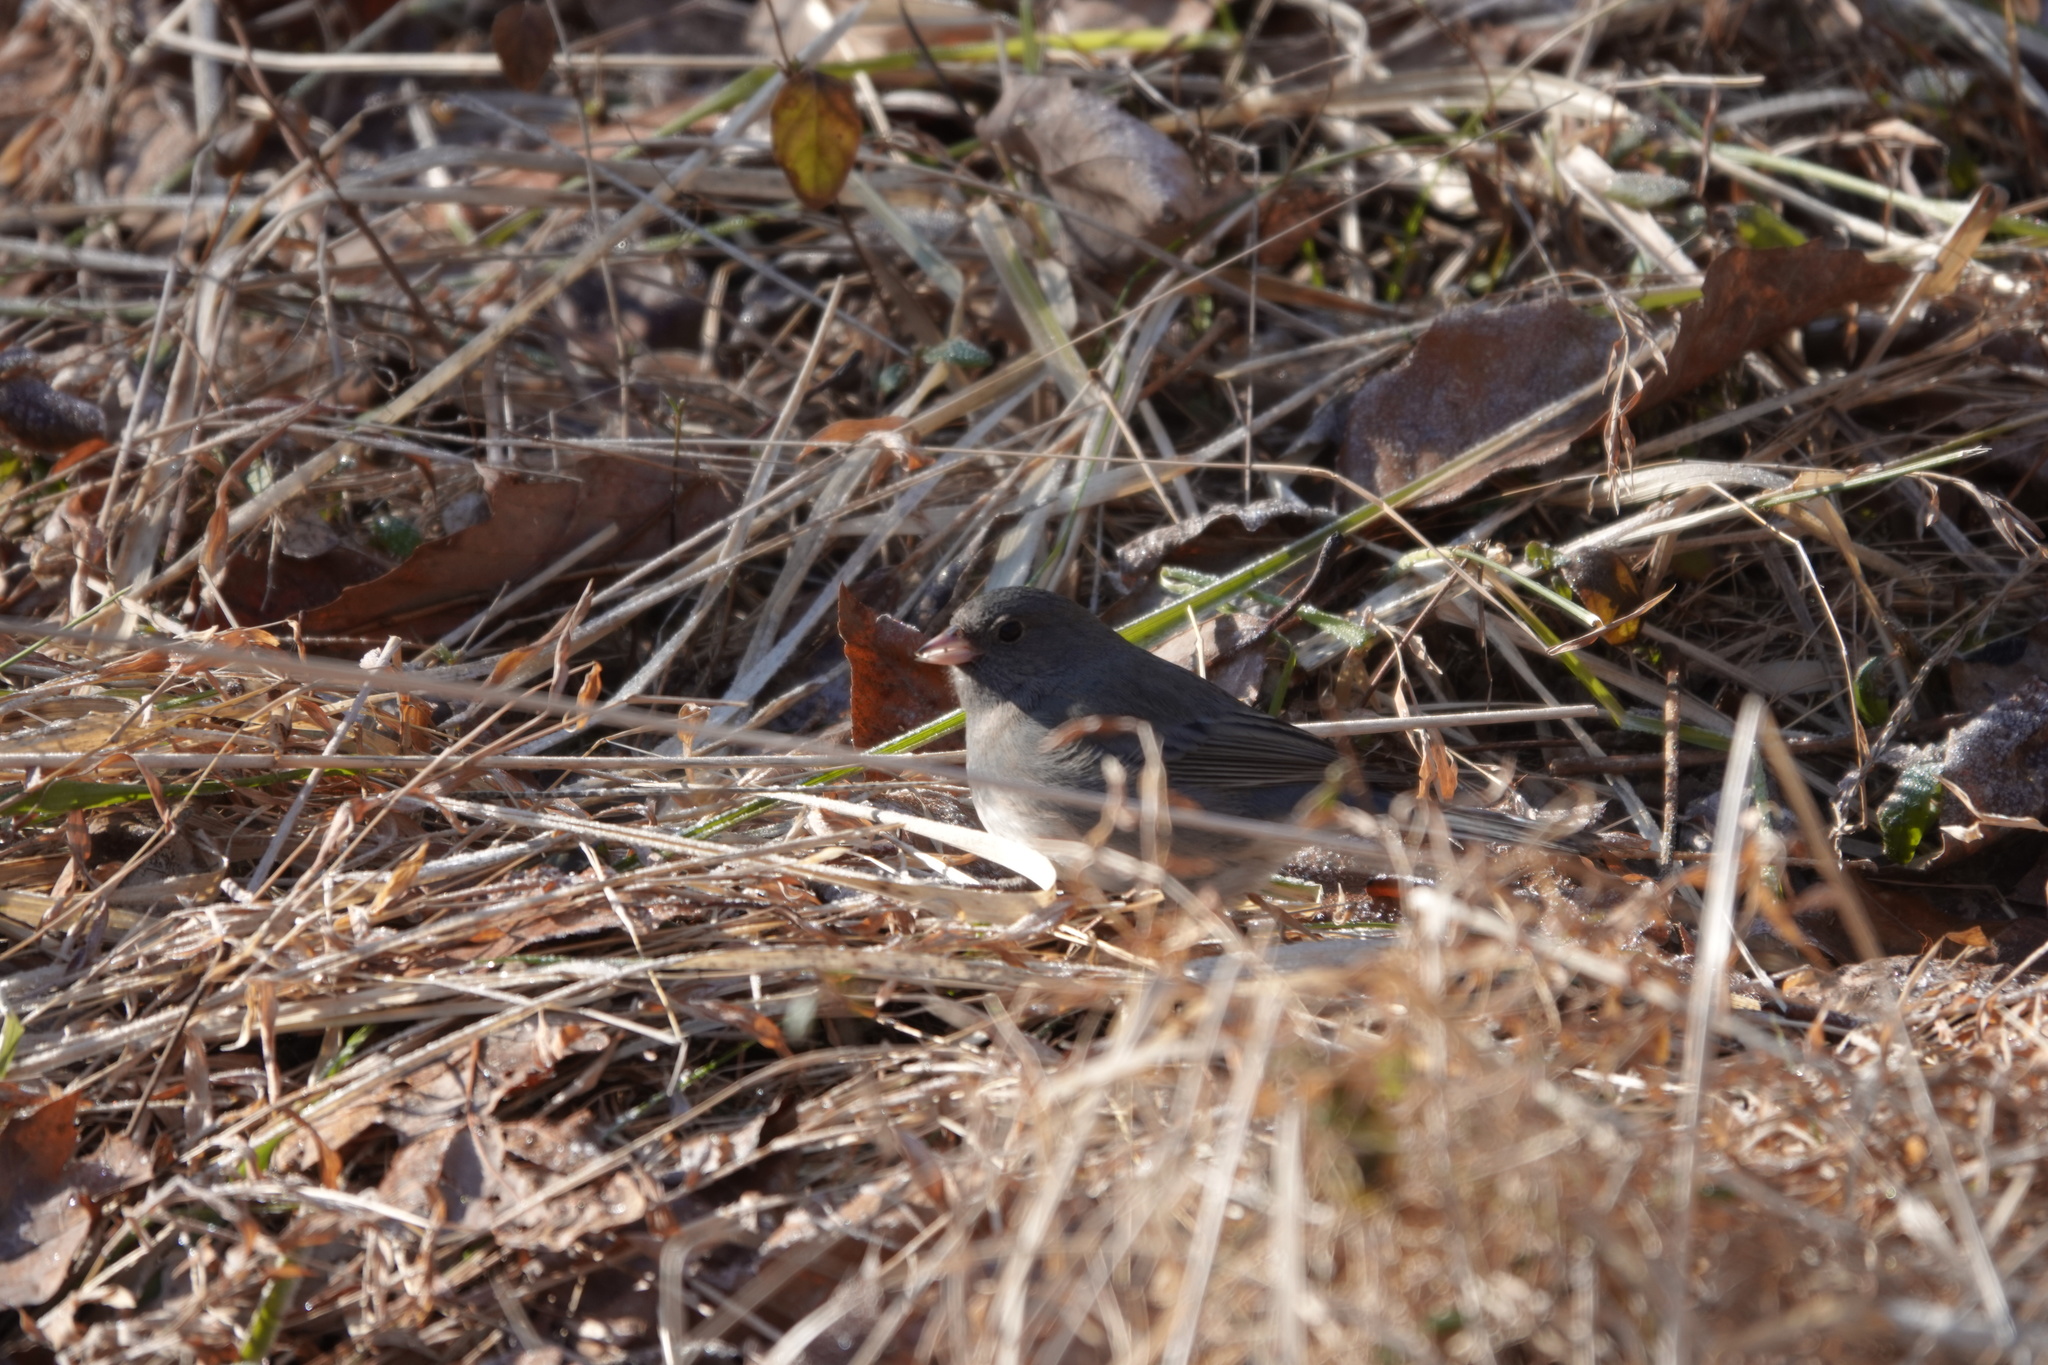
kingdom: Animalia
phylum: Chordata
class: Aves
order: Passeriformes
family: Passerellidae
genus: Junco
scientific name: Junco hyemalis
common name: Dark-eyed junco
